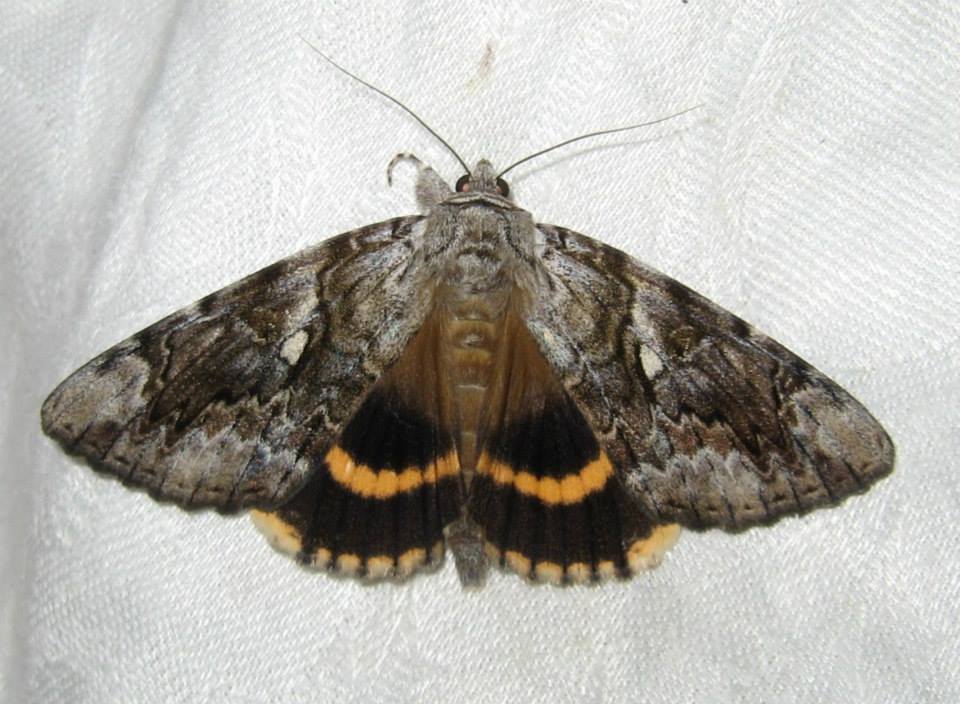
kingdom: Animalia
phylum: Arthropoda
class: Insecta
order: Lepidoptera
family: Erebidae
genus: Catocala
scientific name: Catocala cerogama
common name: Yellow banded underwing
